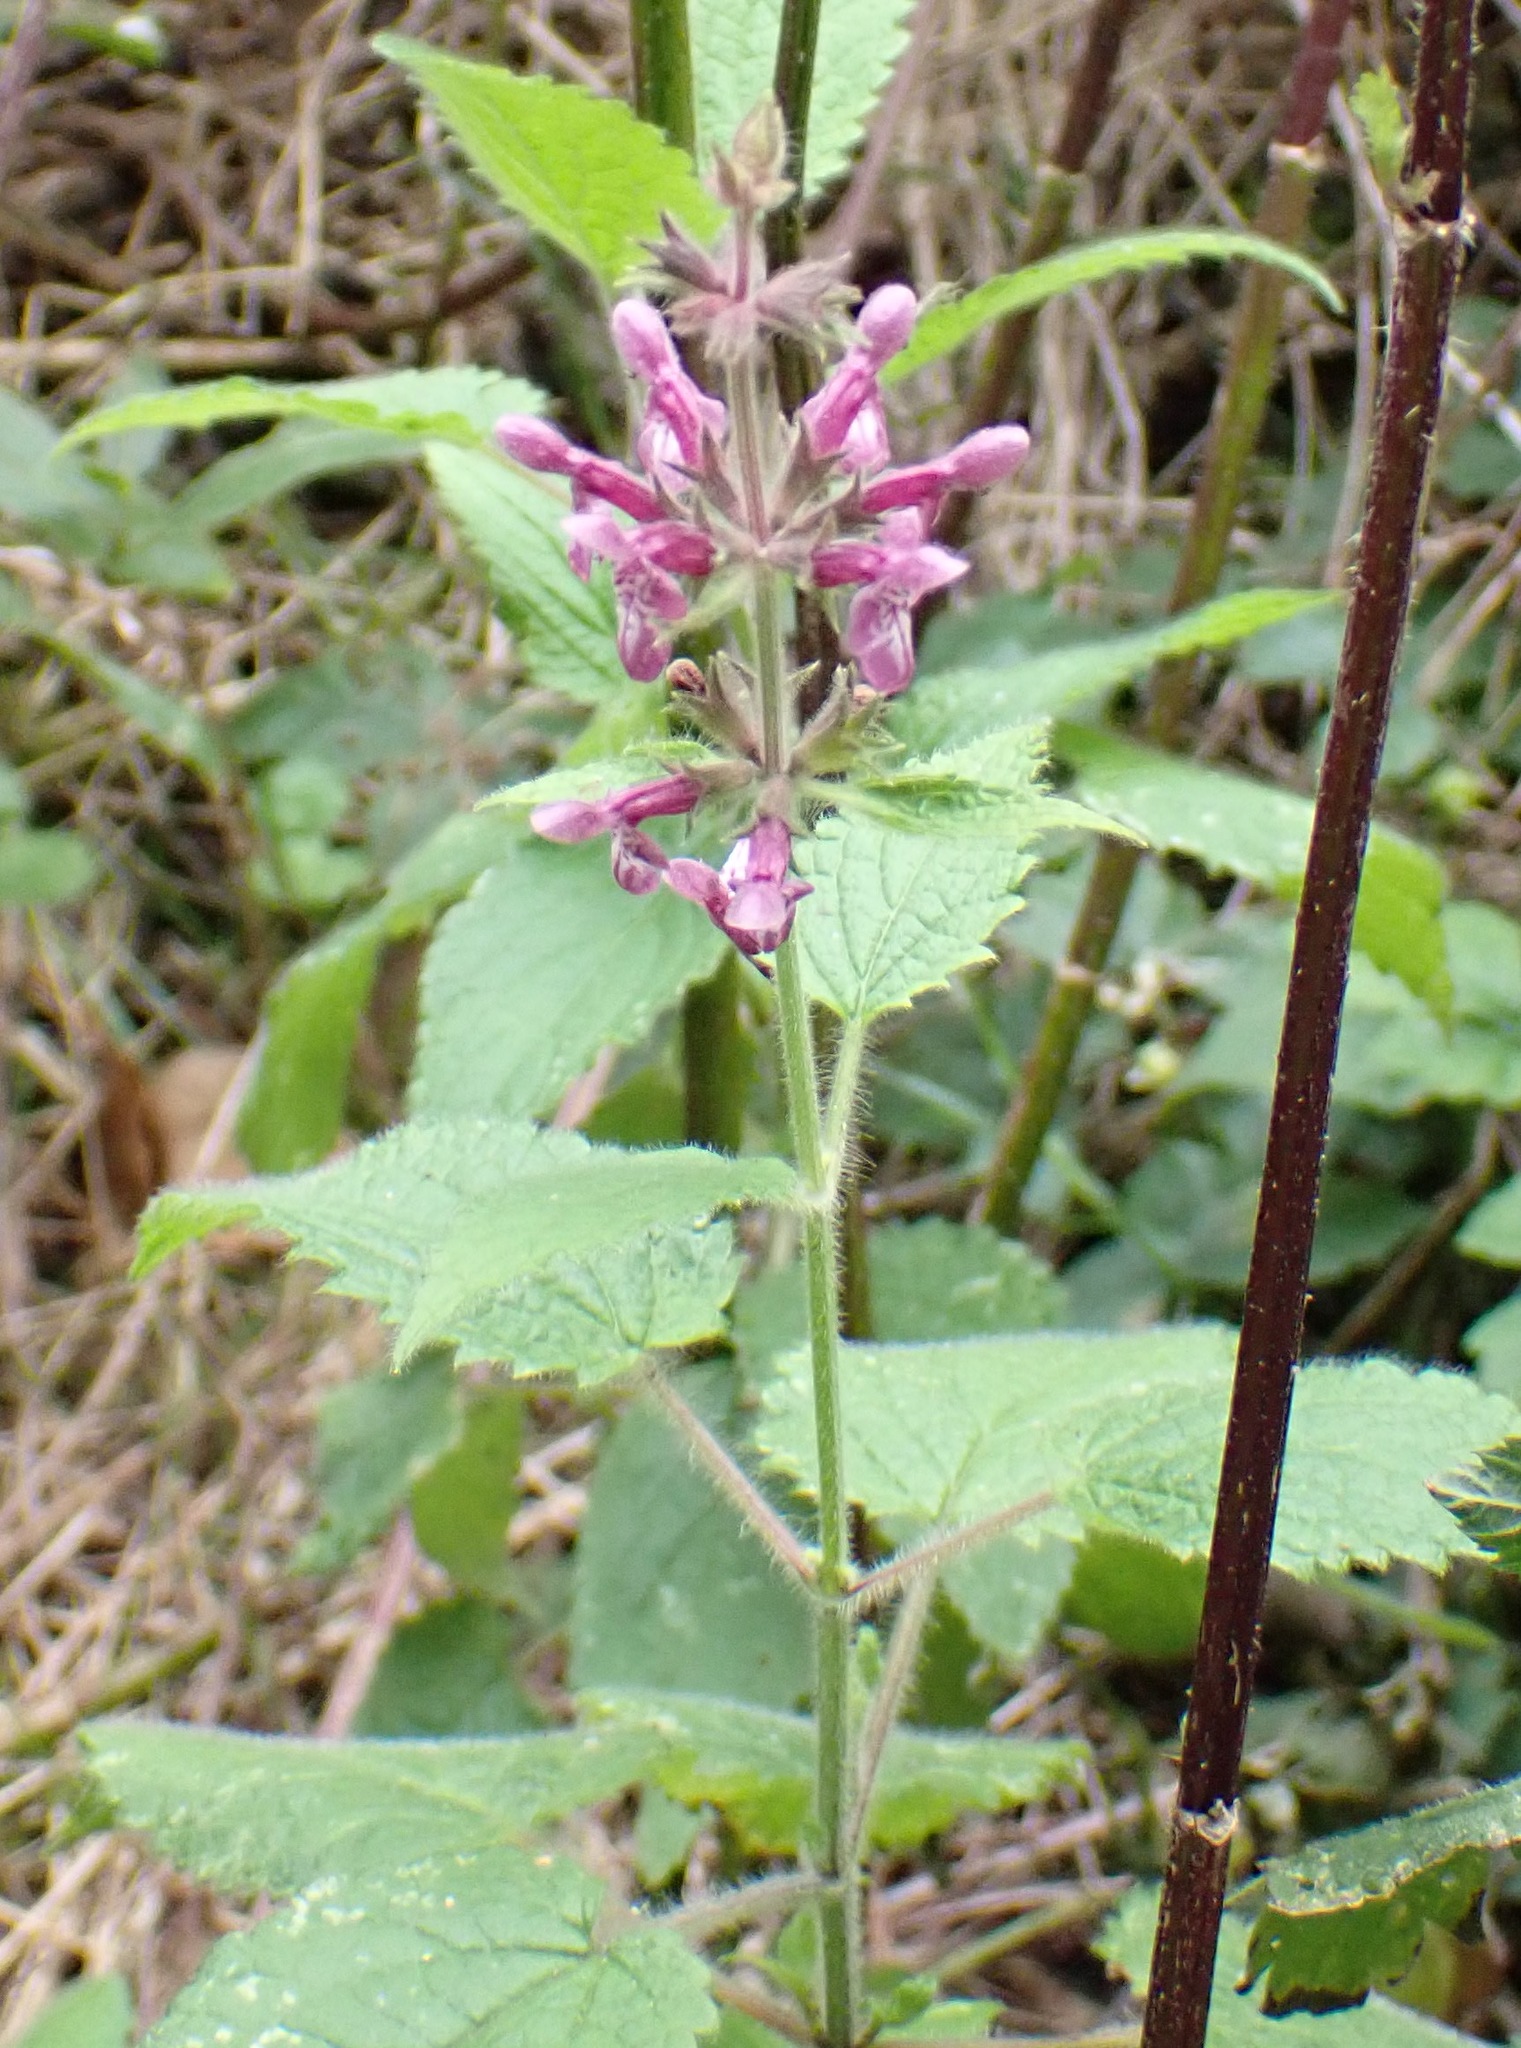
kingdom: Plantae
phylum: Tracheophyta
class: Magnoliopsida
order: Lamiales
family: Lamiaceae
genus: Stachys
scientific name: Stachys sylvatica
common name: Hedge woundwort
